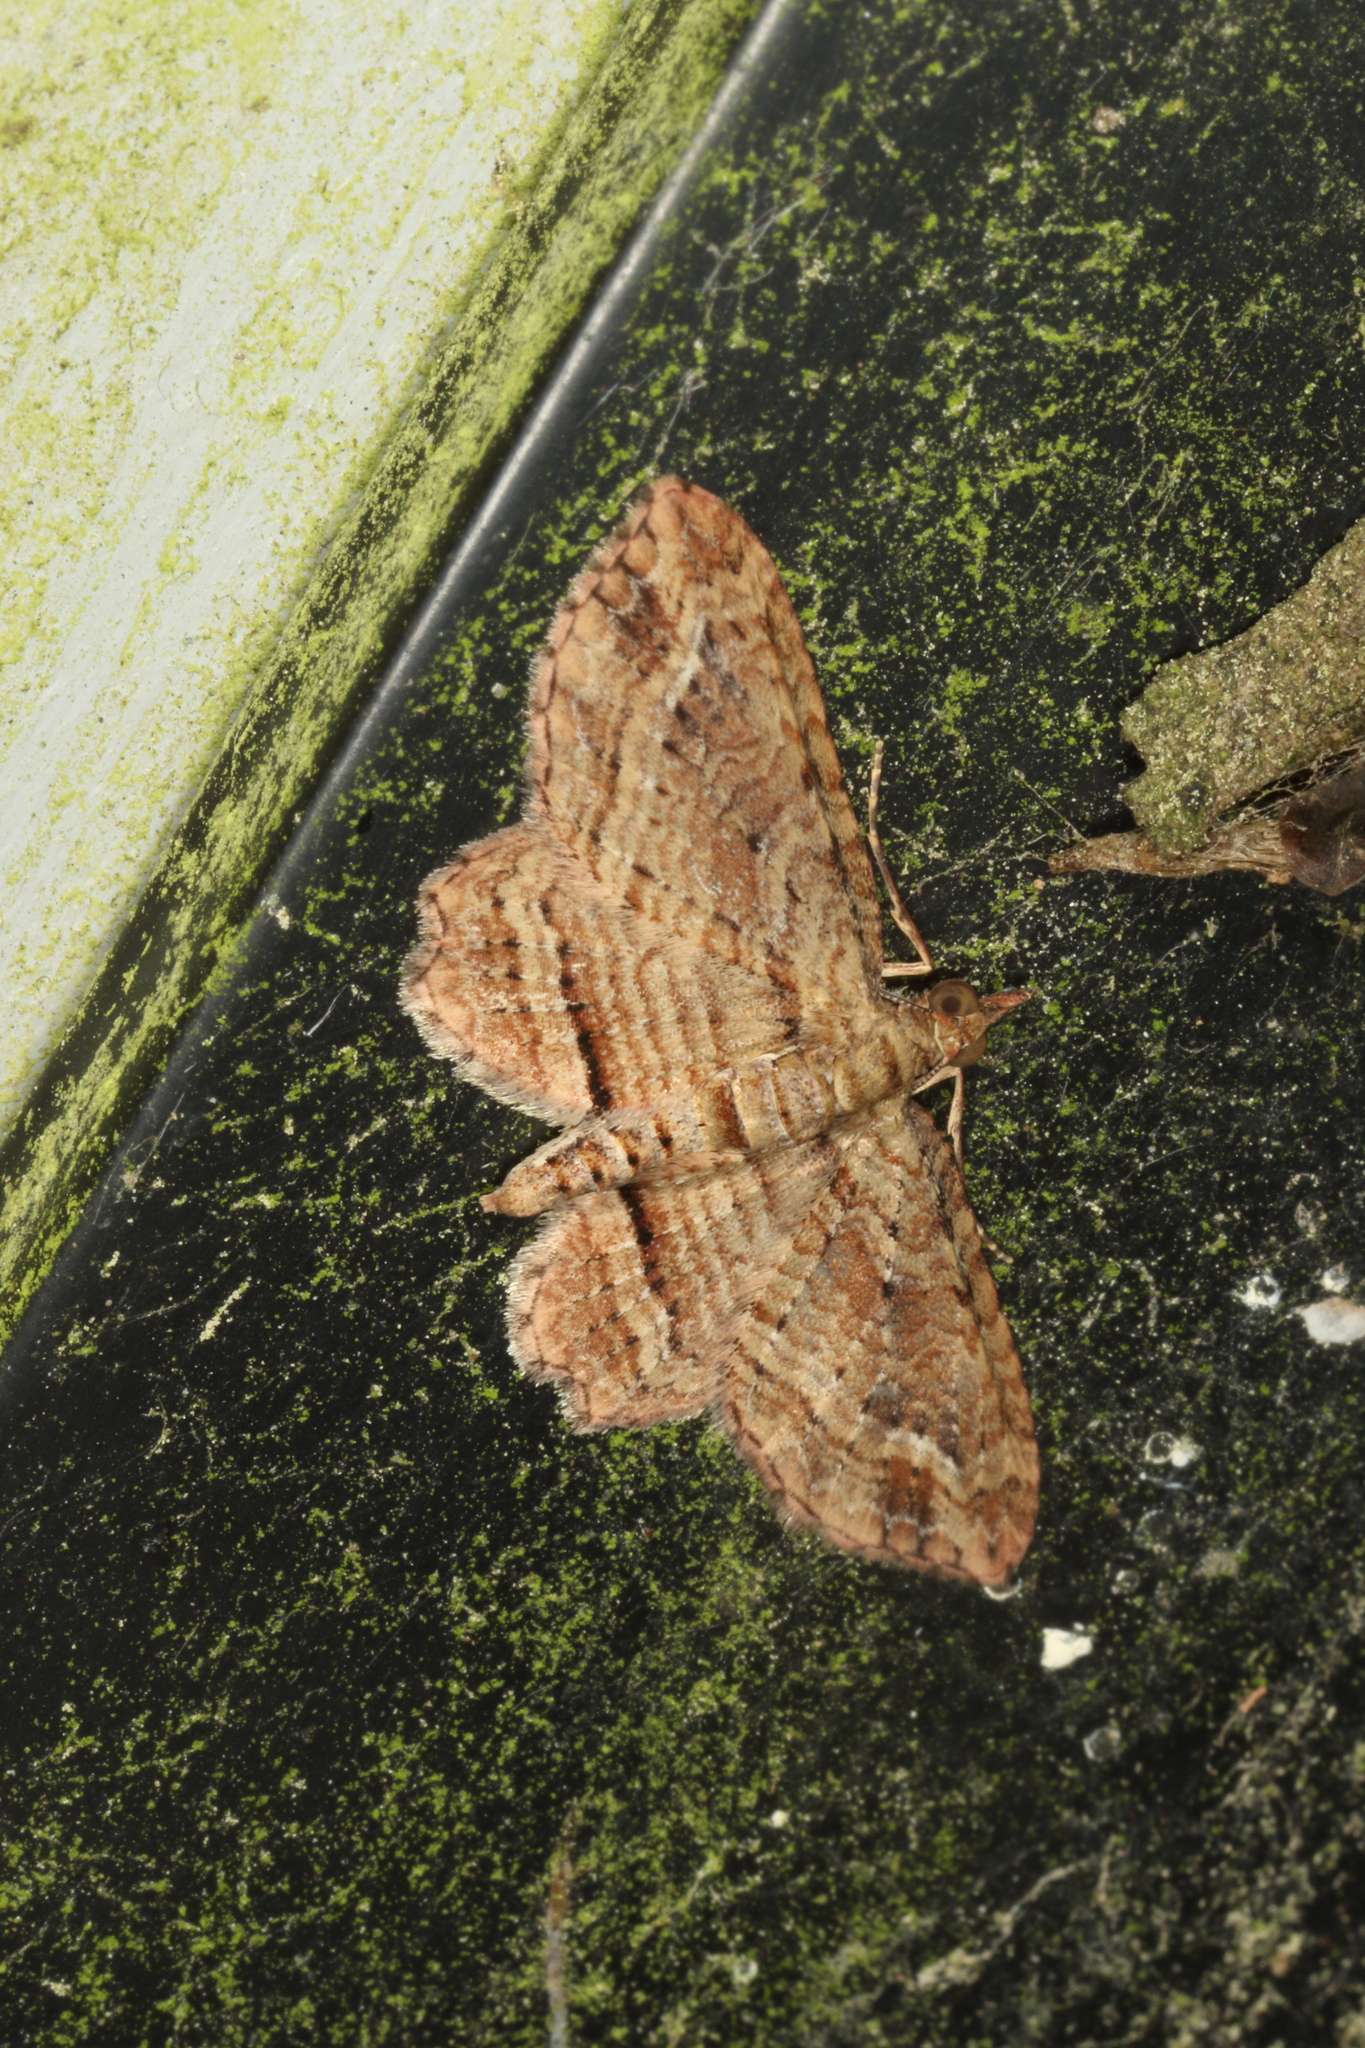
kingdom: Animalia
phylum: Arthropoda
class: Insecta
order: Lepidoptera
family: Geometridae
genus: Chloroclystis
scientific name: Chloroclystis filata
